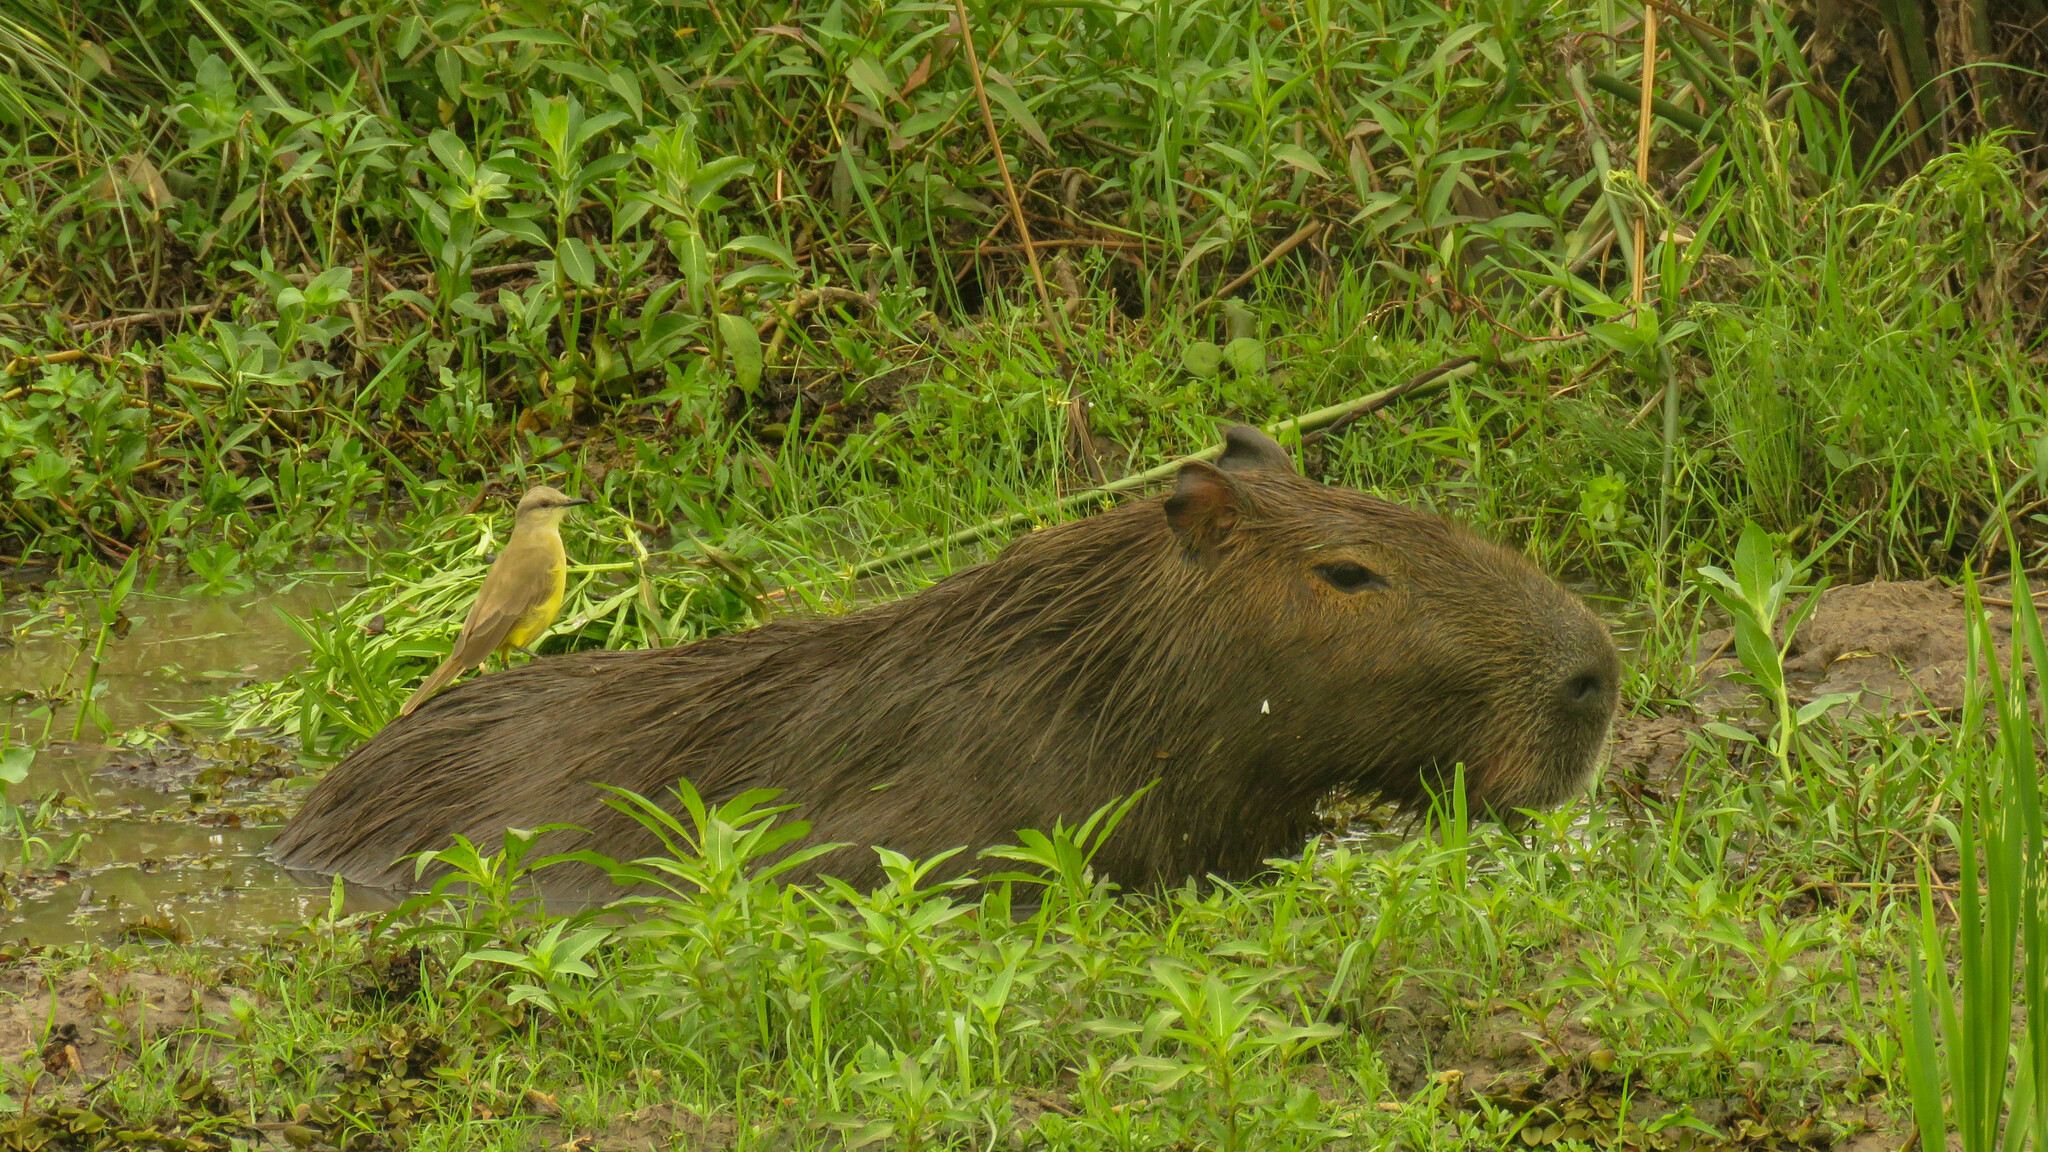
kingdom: Animalia
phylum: Chordata
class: Mammalia
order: Rodentia
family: Caviidae
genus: Hydrochoerus
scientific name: Hydrochoerus hydrochaeris
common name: Capybara
